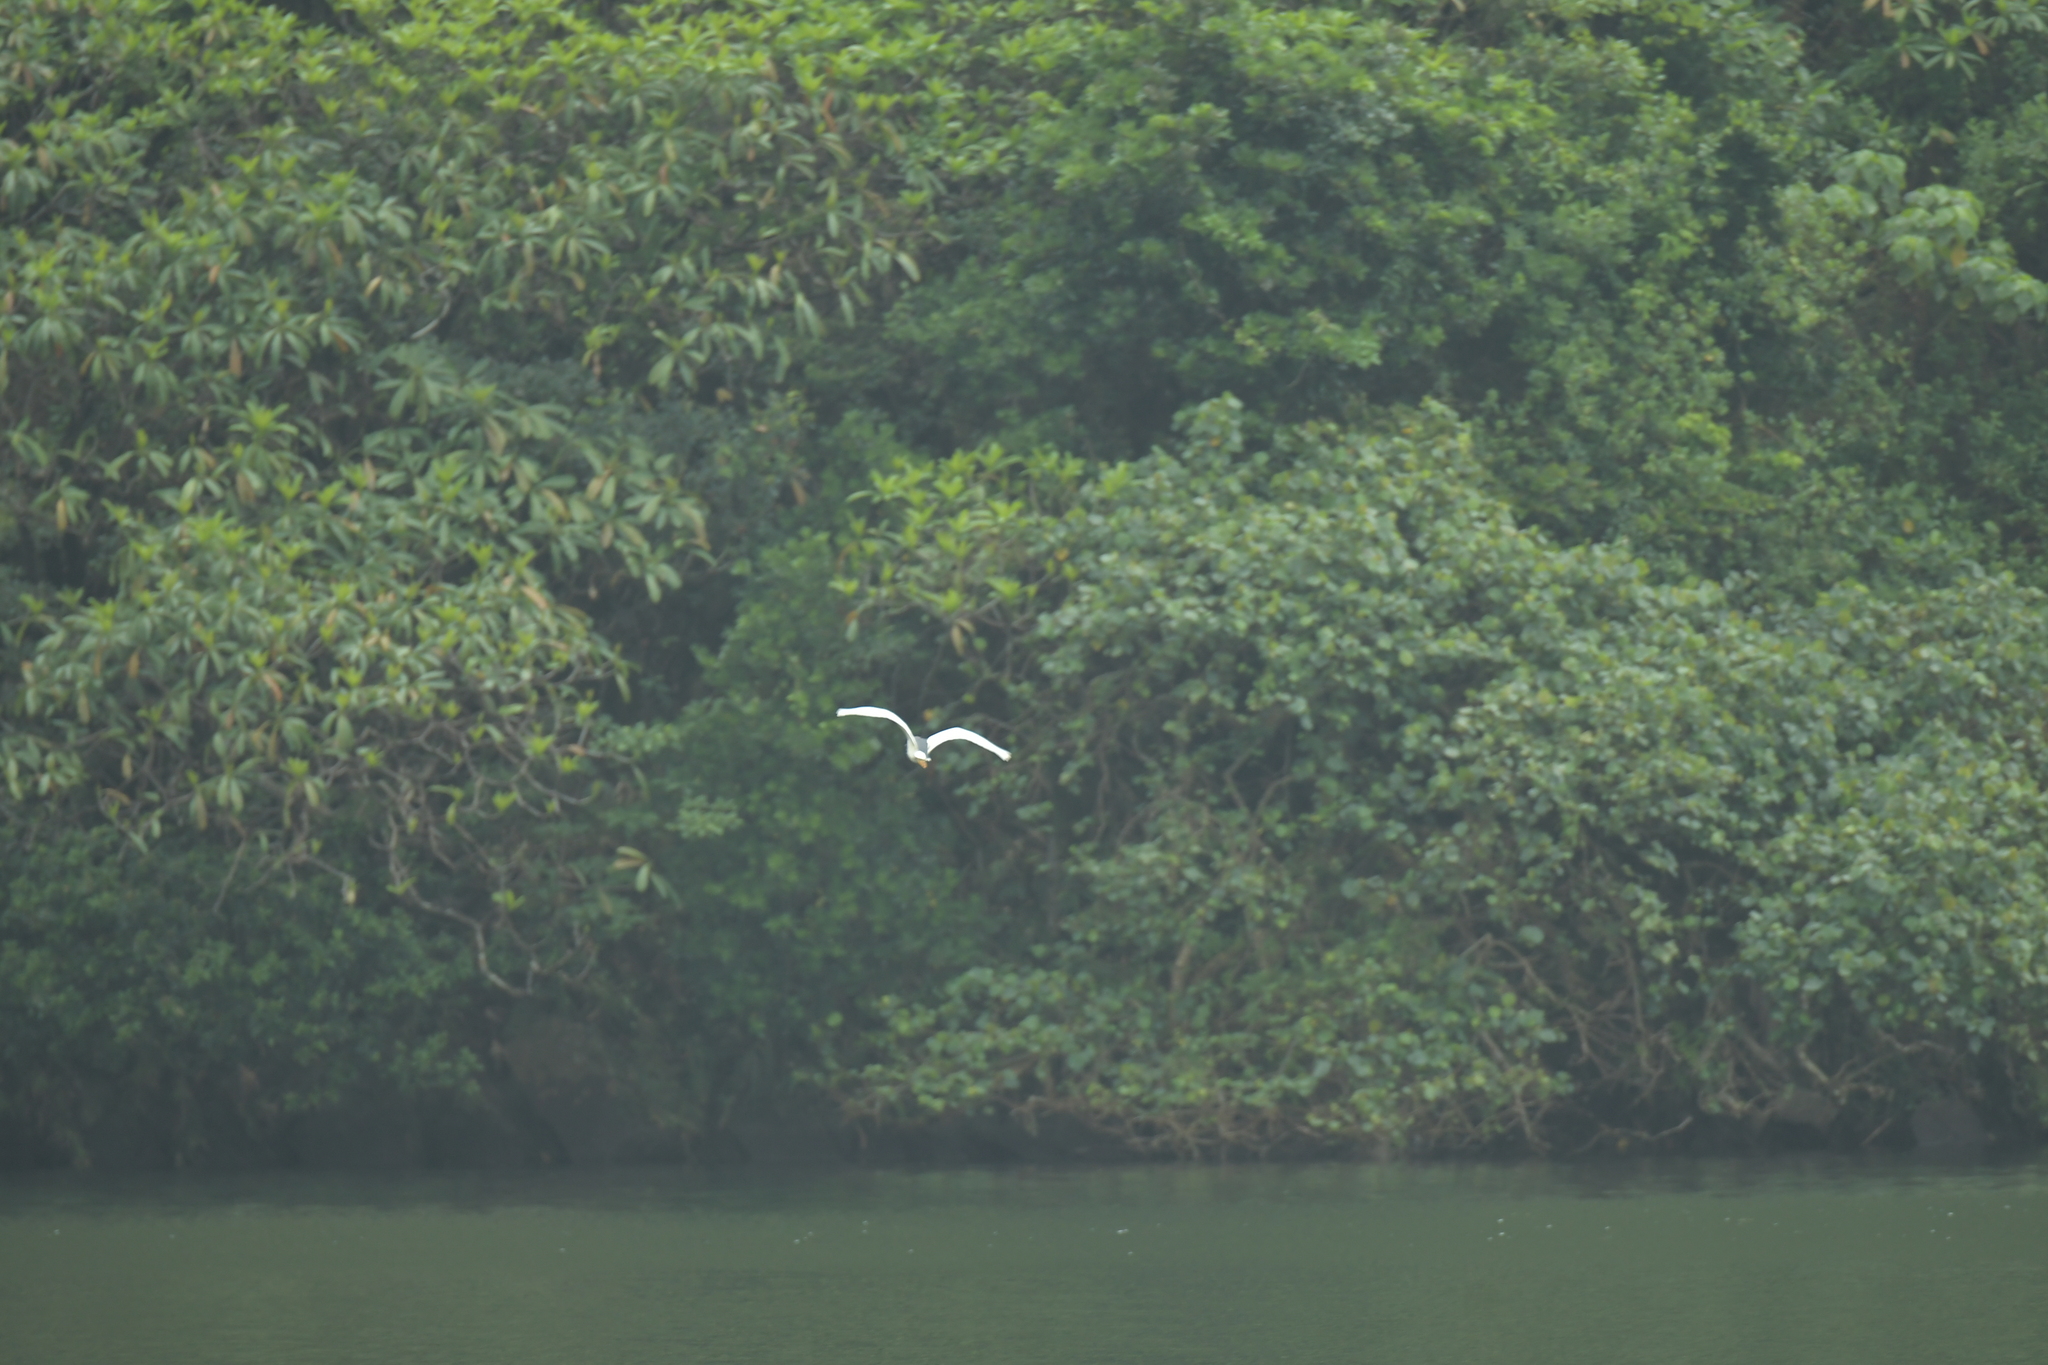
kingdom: Animalia
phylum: Chordata
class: Aves
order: Pelecaniformes
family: Ardeidae
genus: Nycticorax
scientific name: Nycticorax nycticorax
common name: Black-crowned night heron
